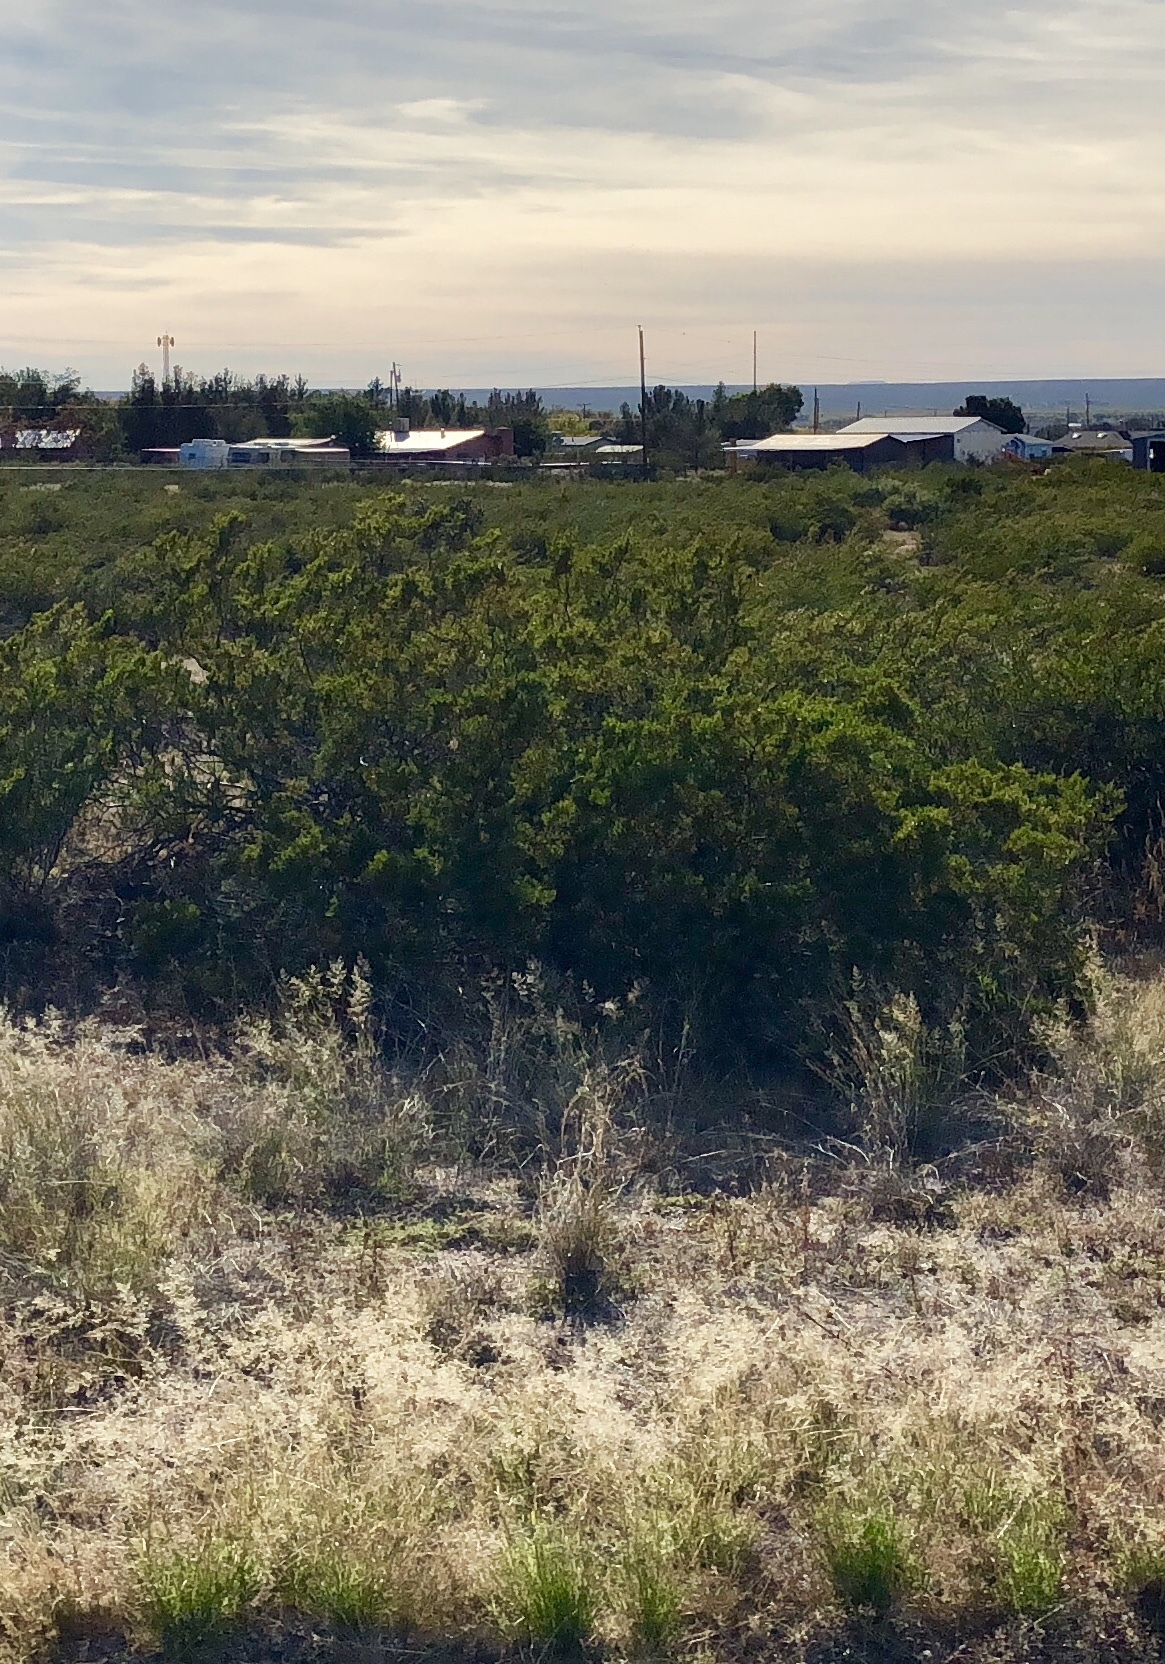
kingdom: Plantae
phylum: Tracheophyta
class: Magnoliopsida
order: Zygophyllales
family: Zygophyllaceae
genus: Larrea
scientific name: Larrea tridentata
